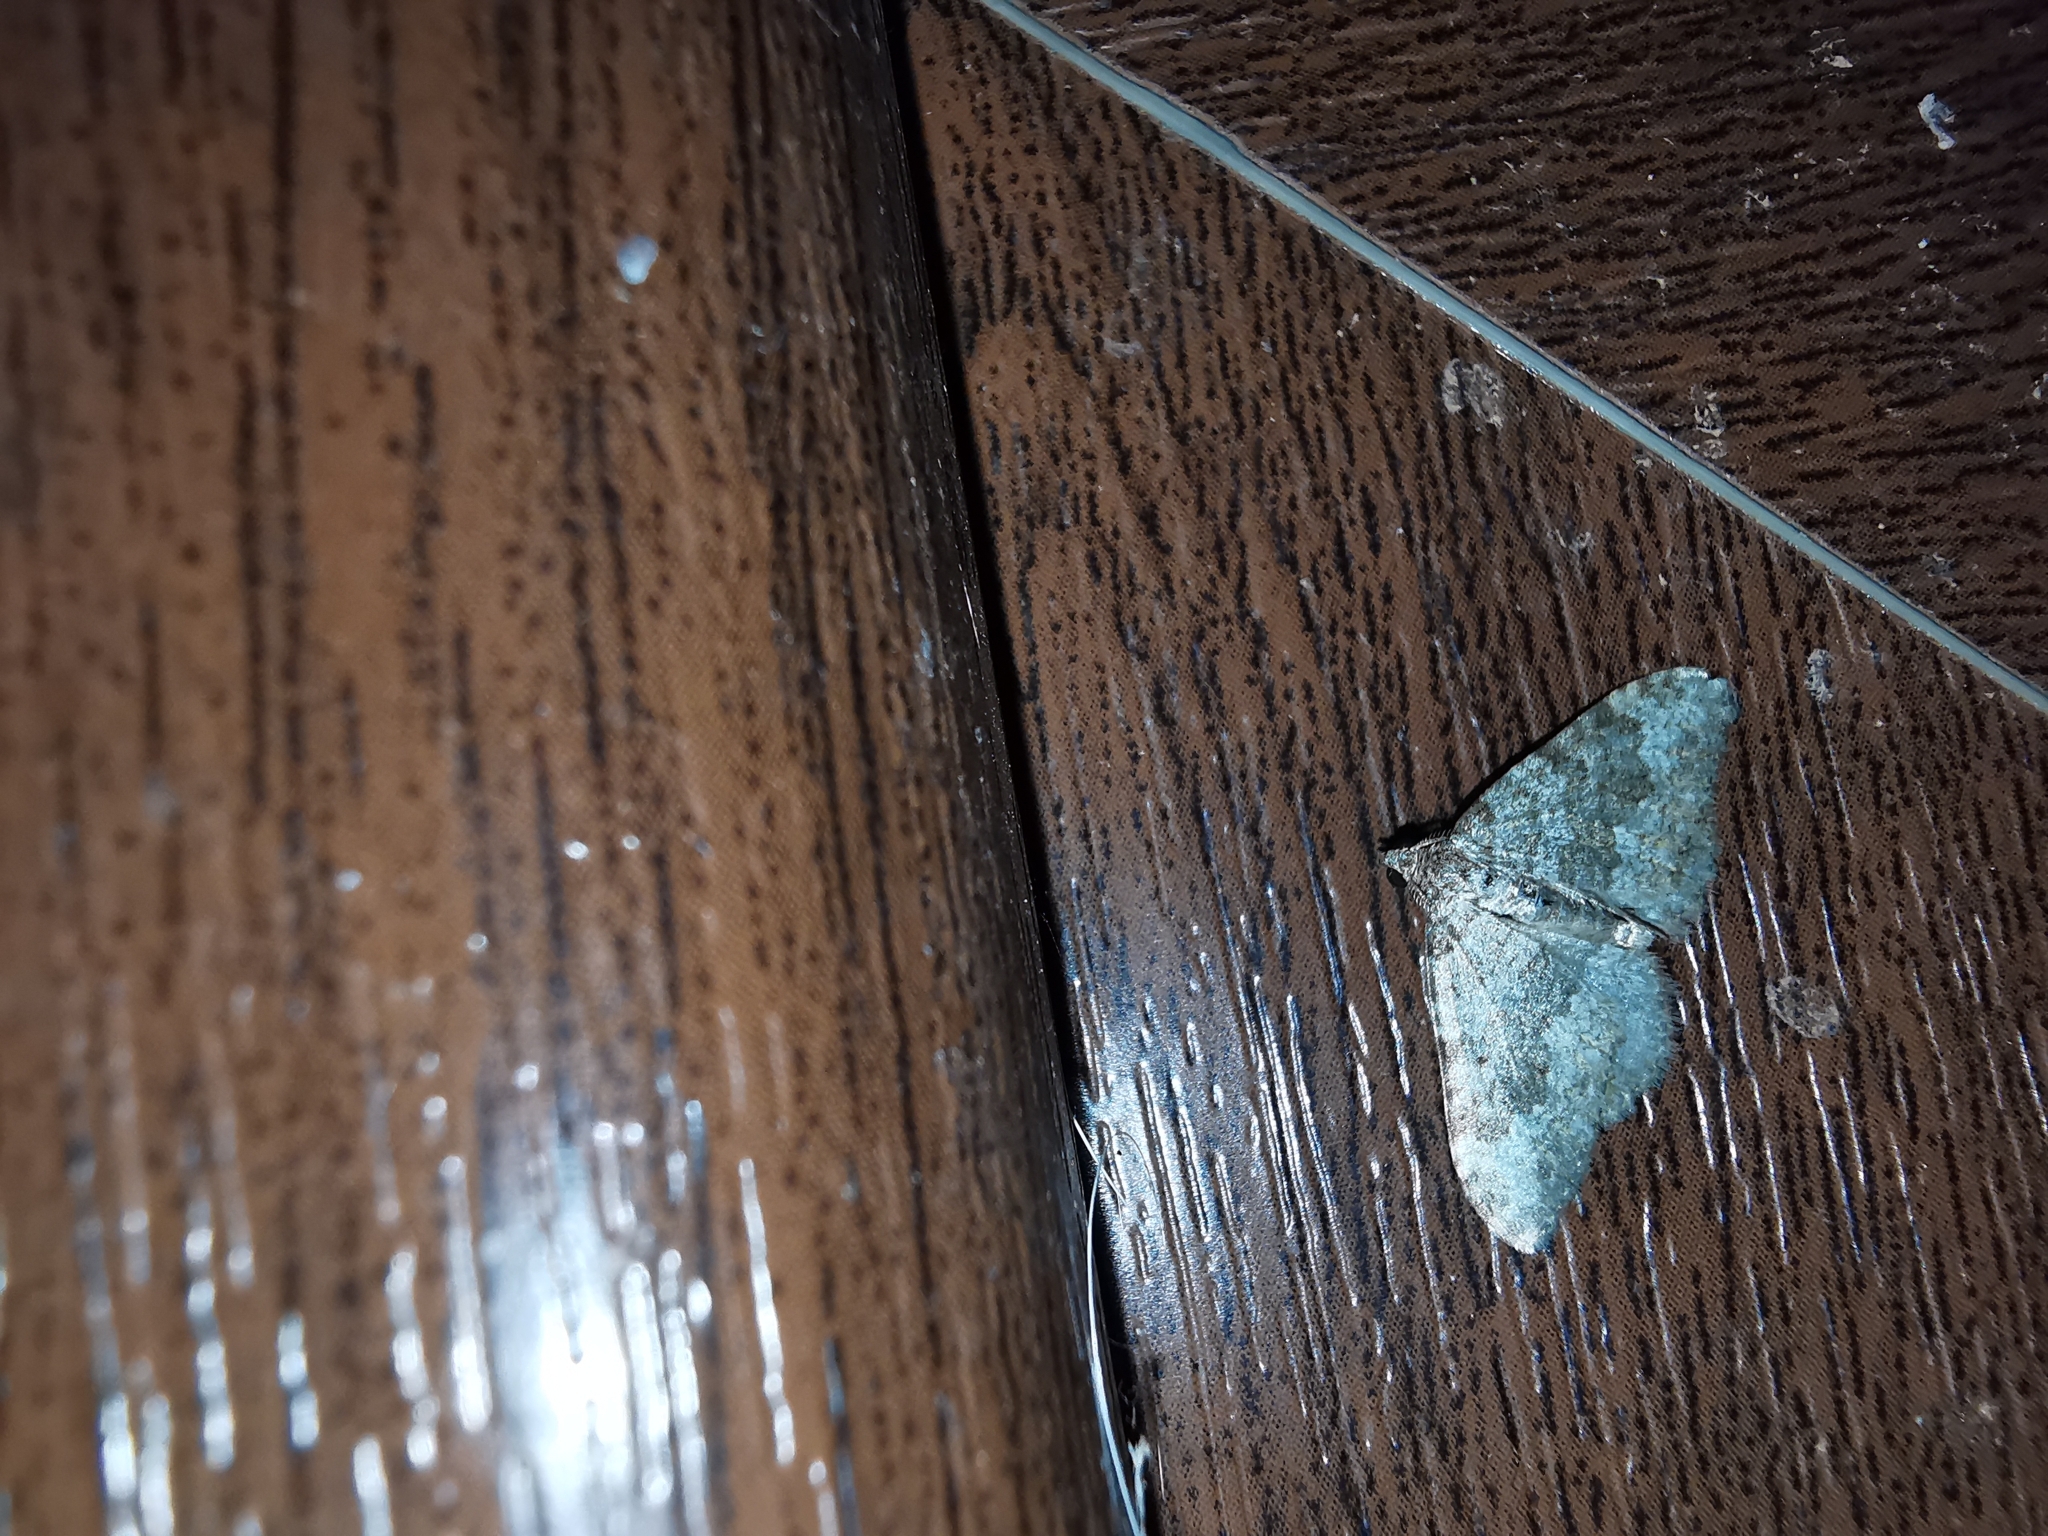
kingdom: Animalia
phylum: Arthropoda
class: Insecta
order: Lepidoptera
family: Geometridae
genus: Nebula
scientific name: Nebula salicata
